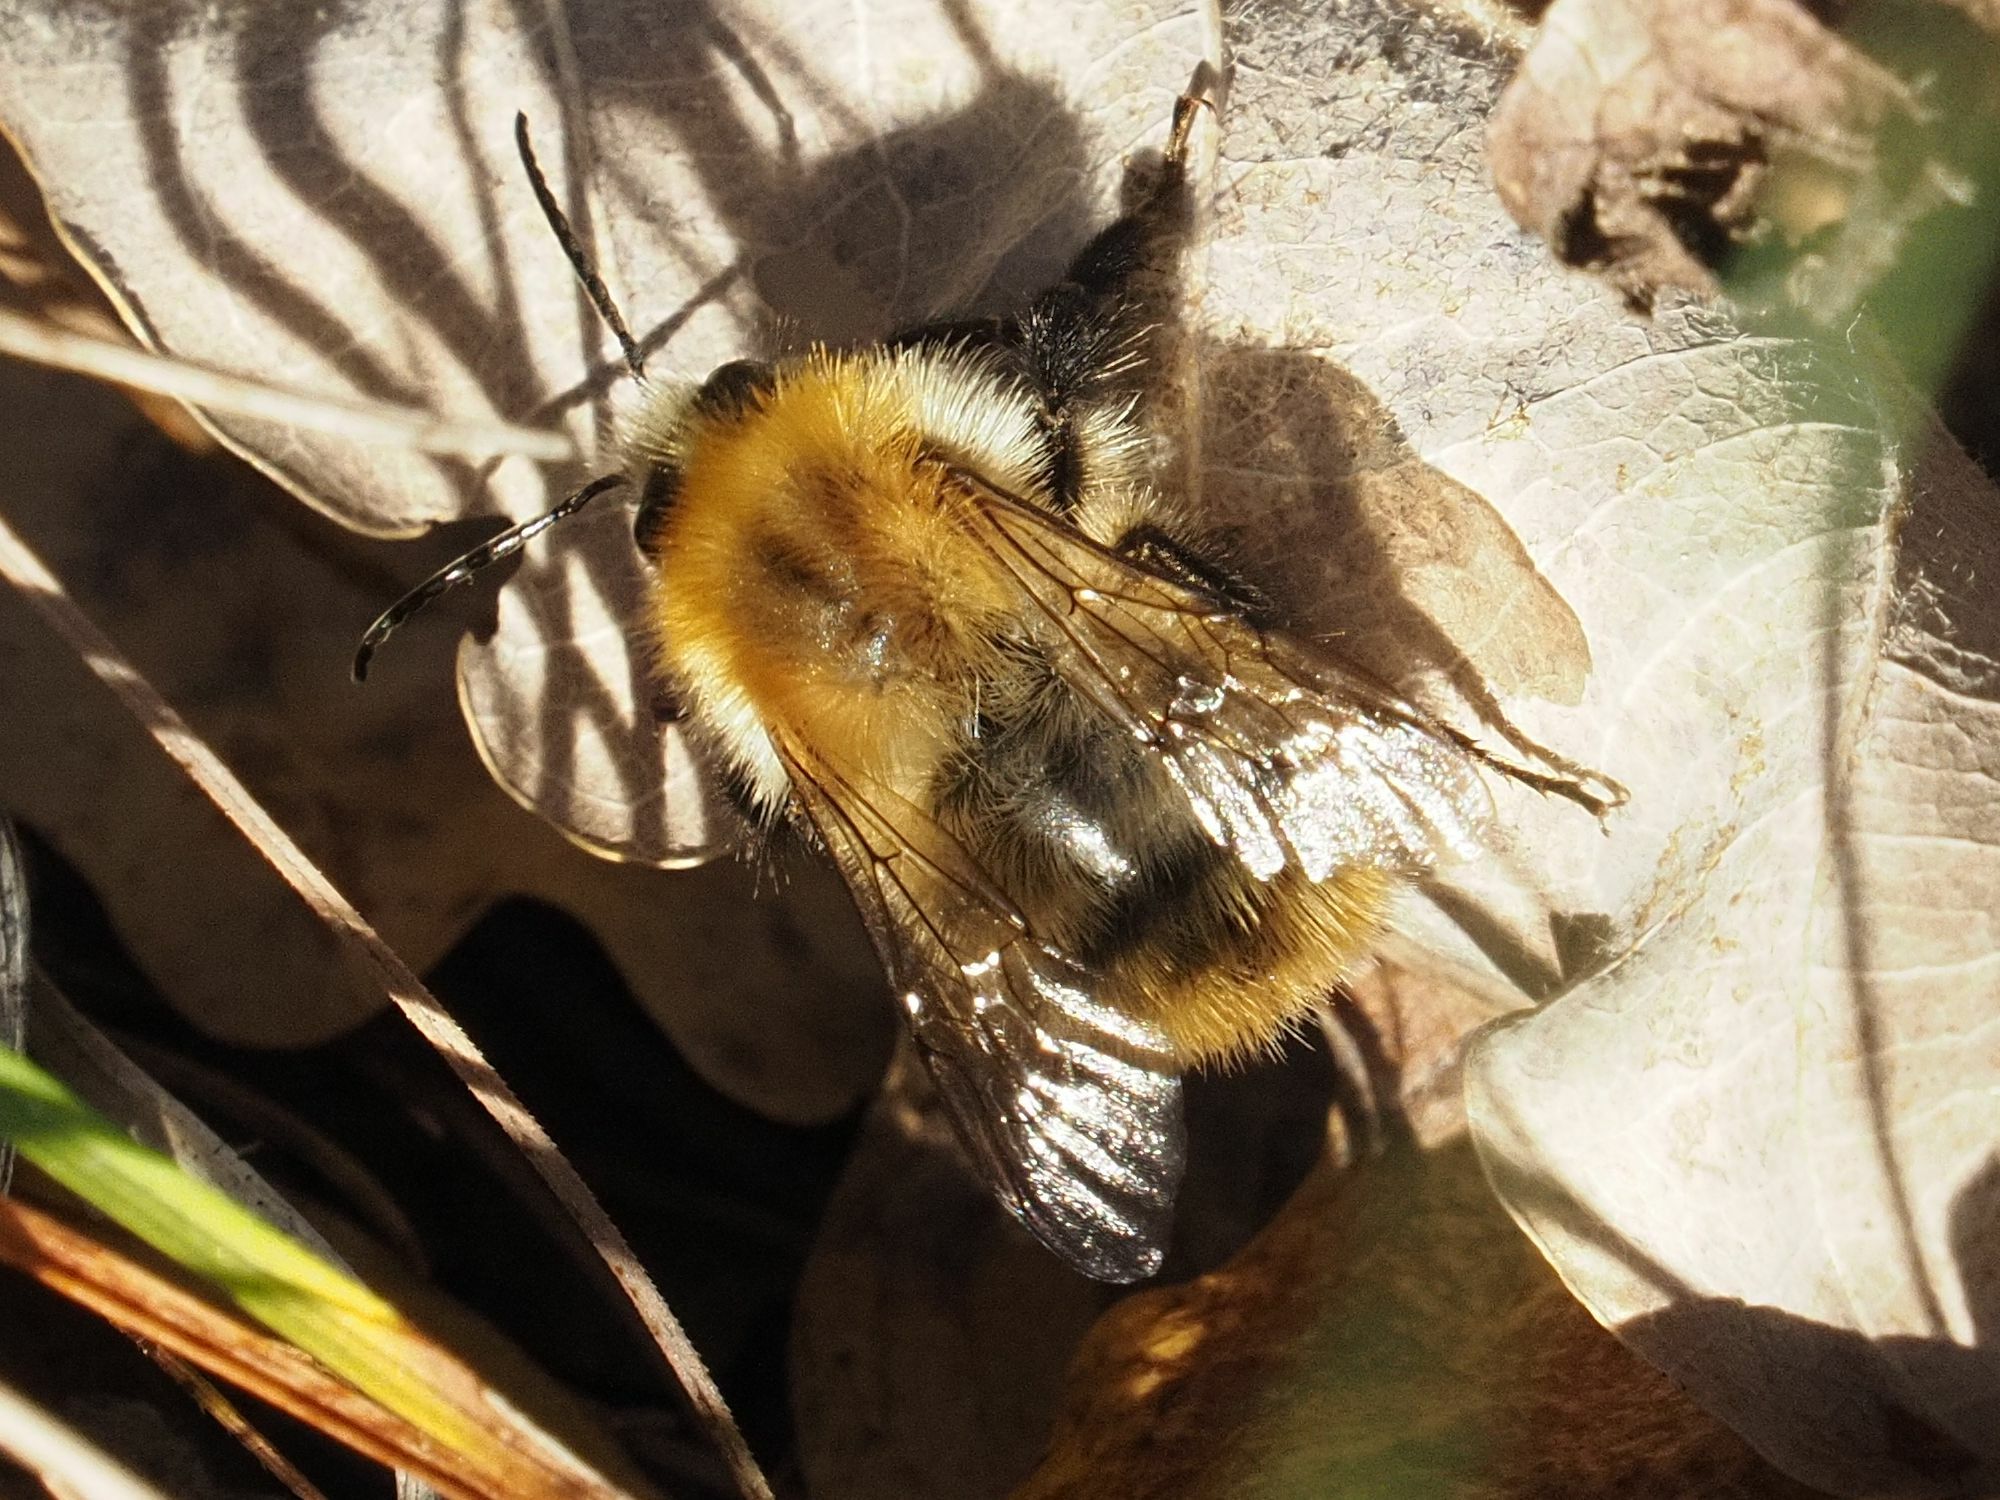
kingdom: Animalia
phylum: Arthropoda
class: Insecta
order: Hymenoptera
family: Apidae
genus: Bombus
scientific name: Bombus pascuorum
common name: Common carder bee
